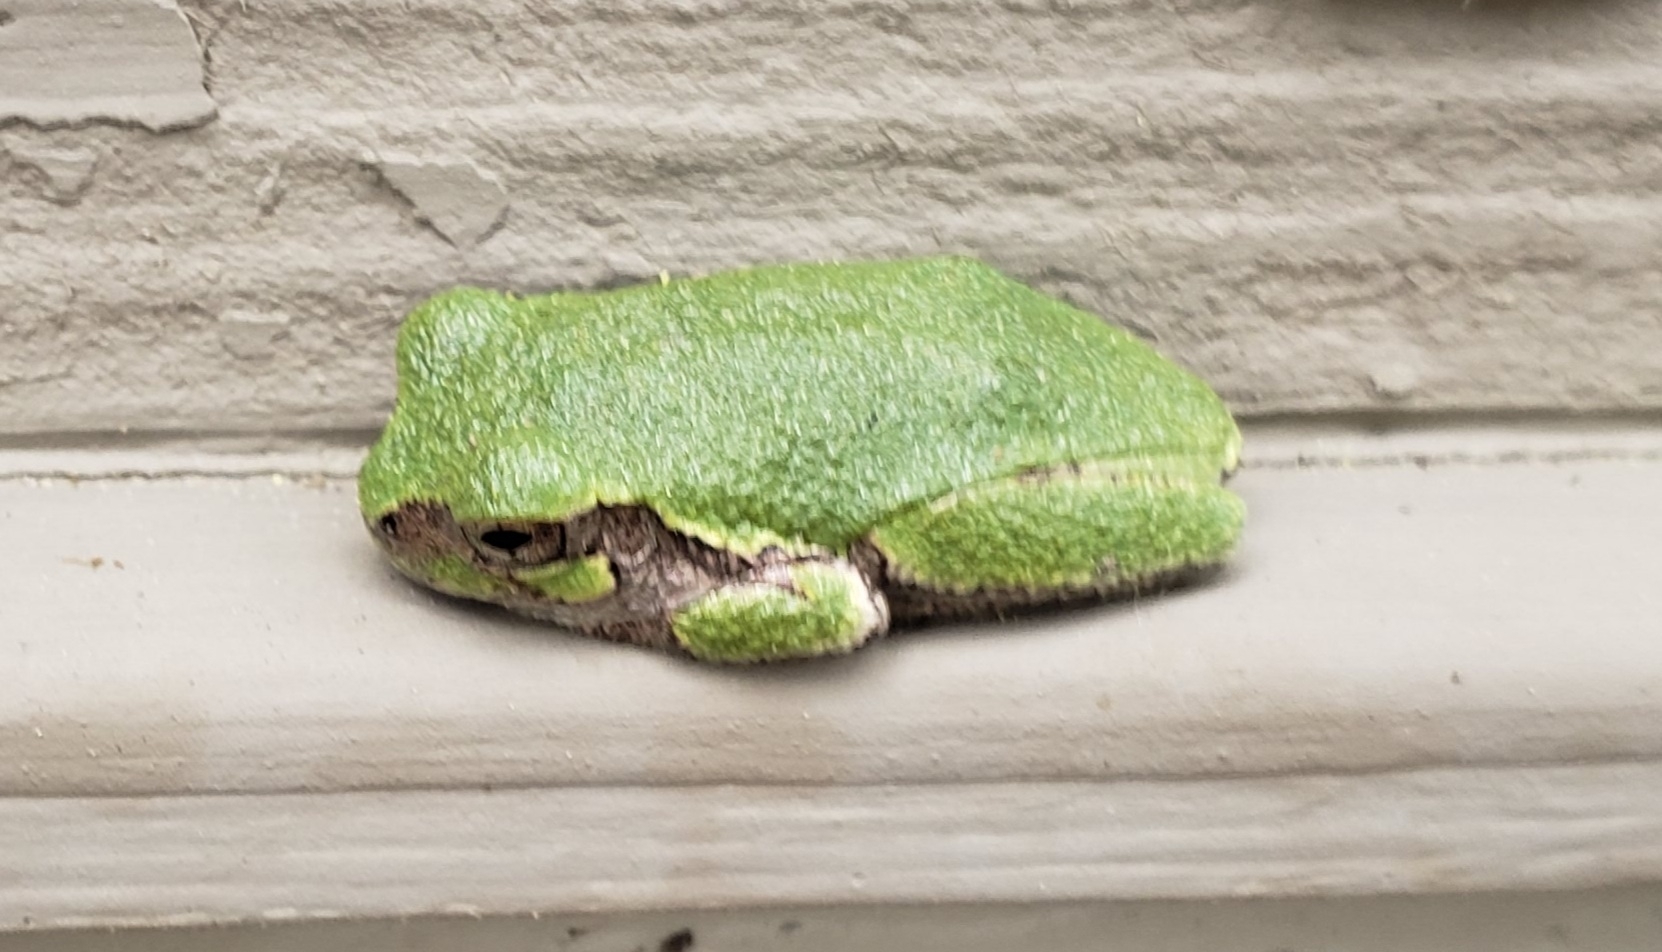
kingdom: Animalia
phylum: Chordata
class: Amphibia
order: Anura
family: Hylidae
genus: Hyla
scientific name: Hyla
